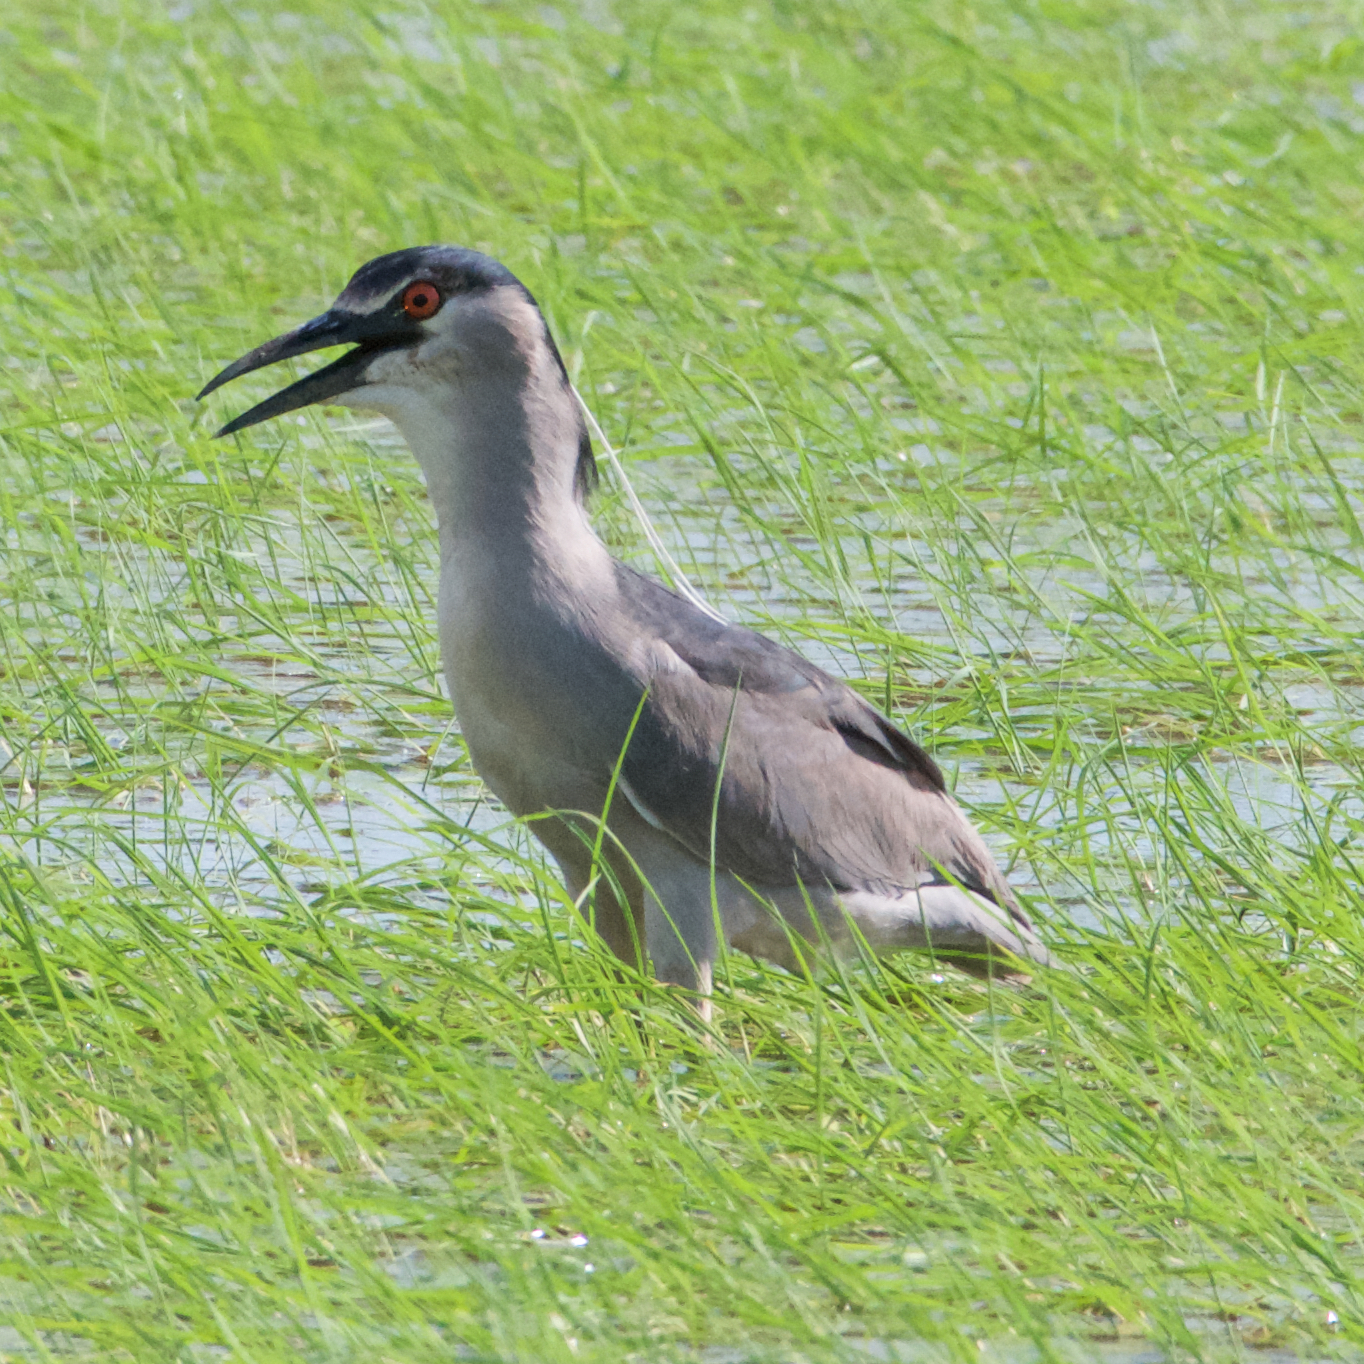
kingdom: Animalia
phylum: Chordata
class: Aves
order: Pelecaniformes
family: Ardeidae
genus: Nycticorax
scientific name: Nycticorax nycticorax
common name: Black-crowned night heron
